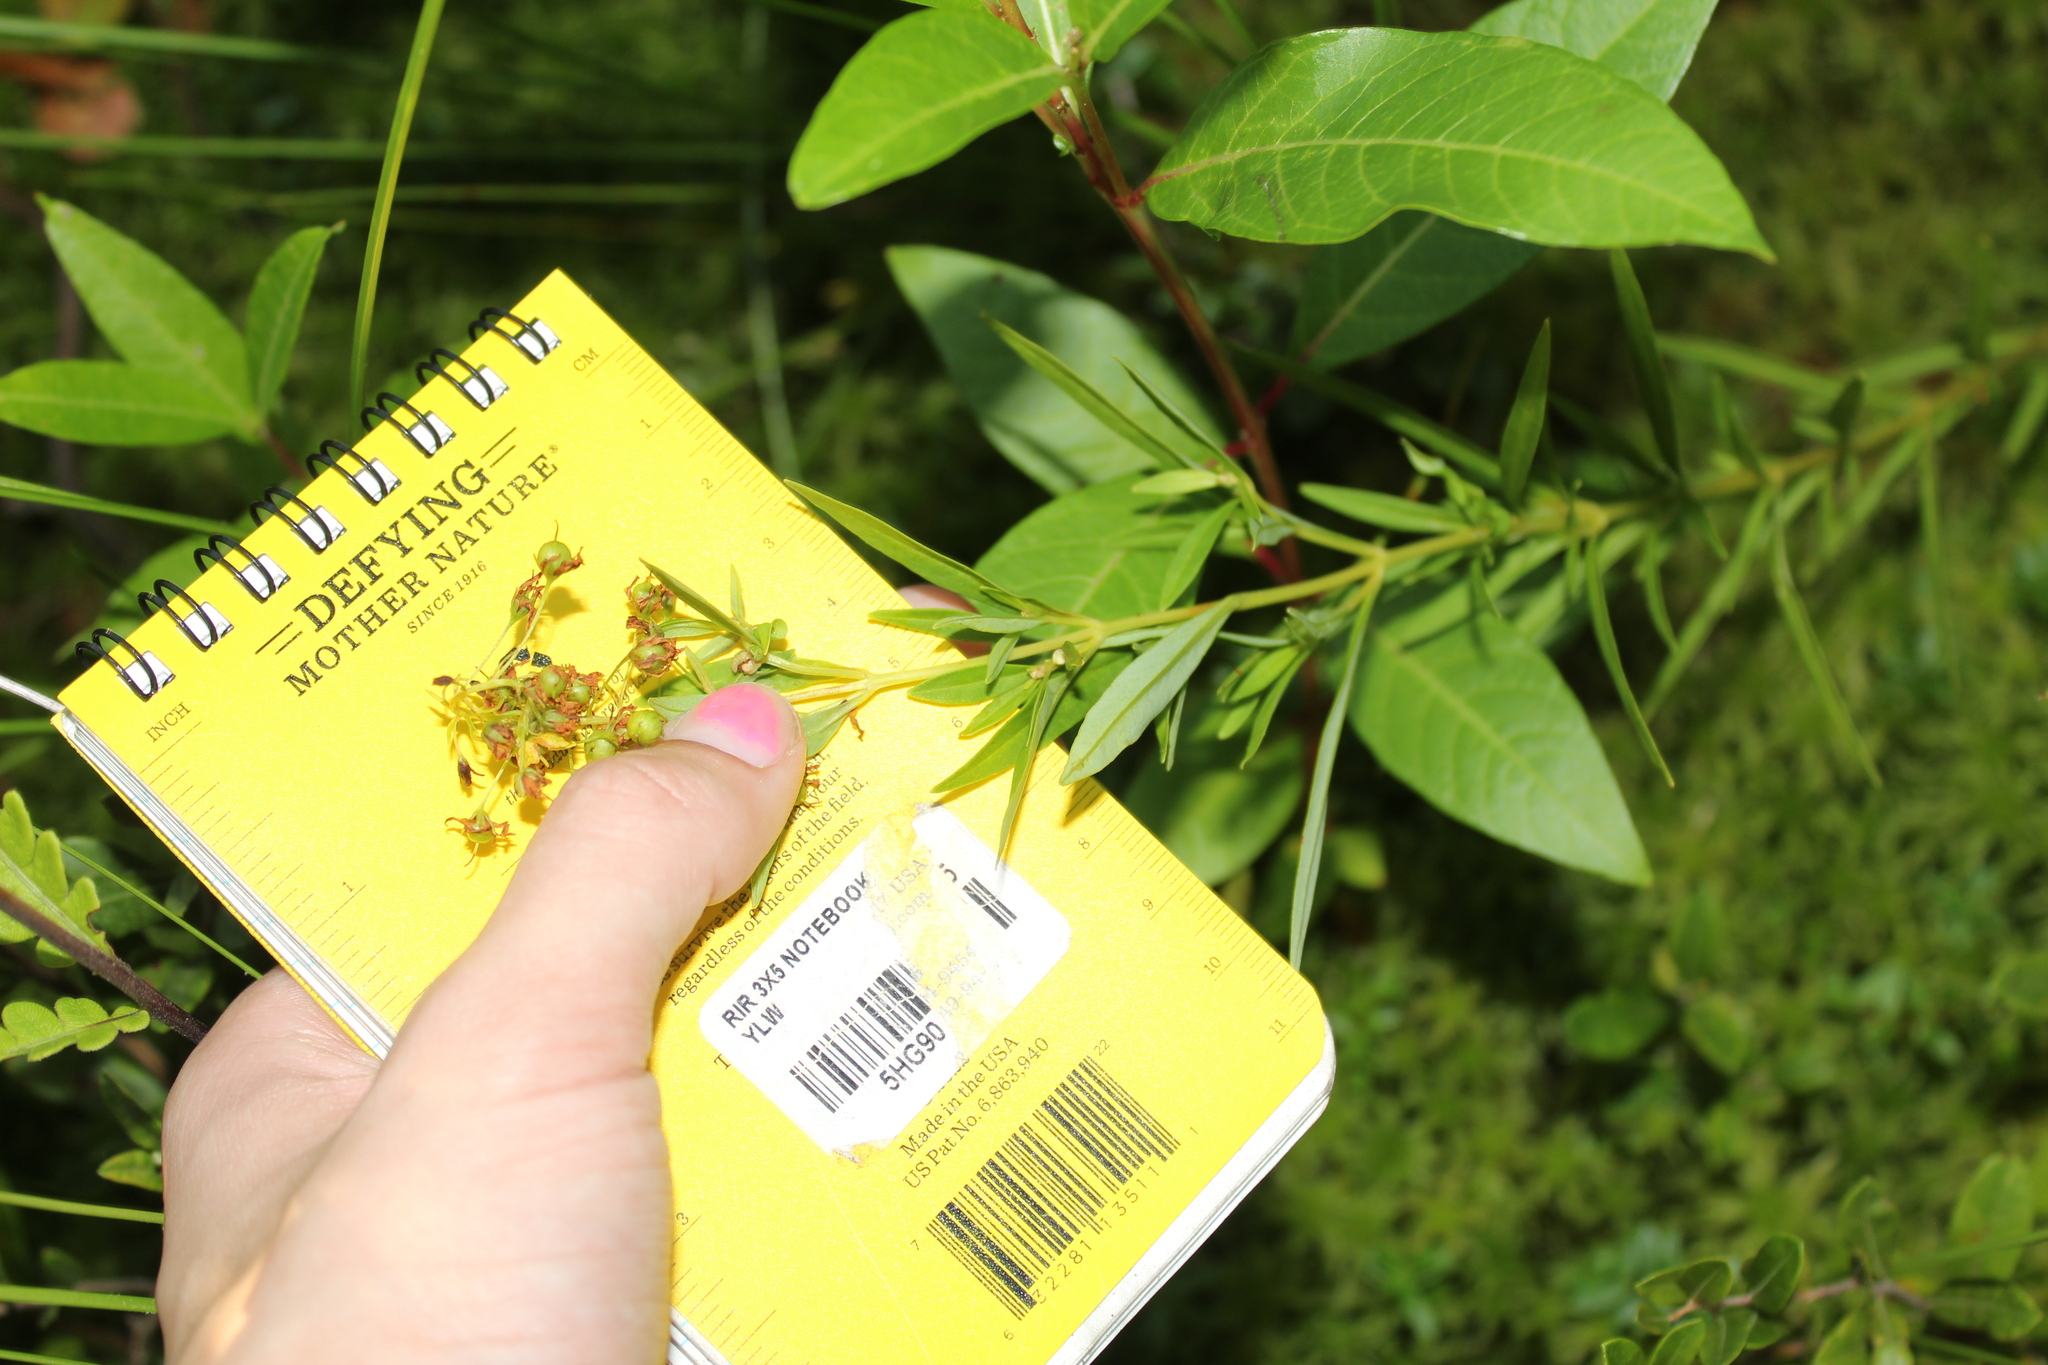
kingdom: Plantae
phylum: Tracheophyta
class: Magnoliopsida
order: Ericales
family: Primulaceae
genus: Lysimachia
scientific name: Lysimachia terrestris
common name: Lake loosestrife
